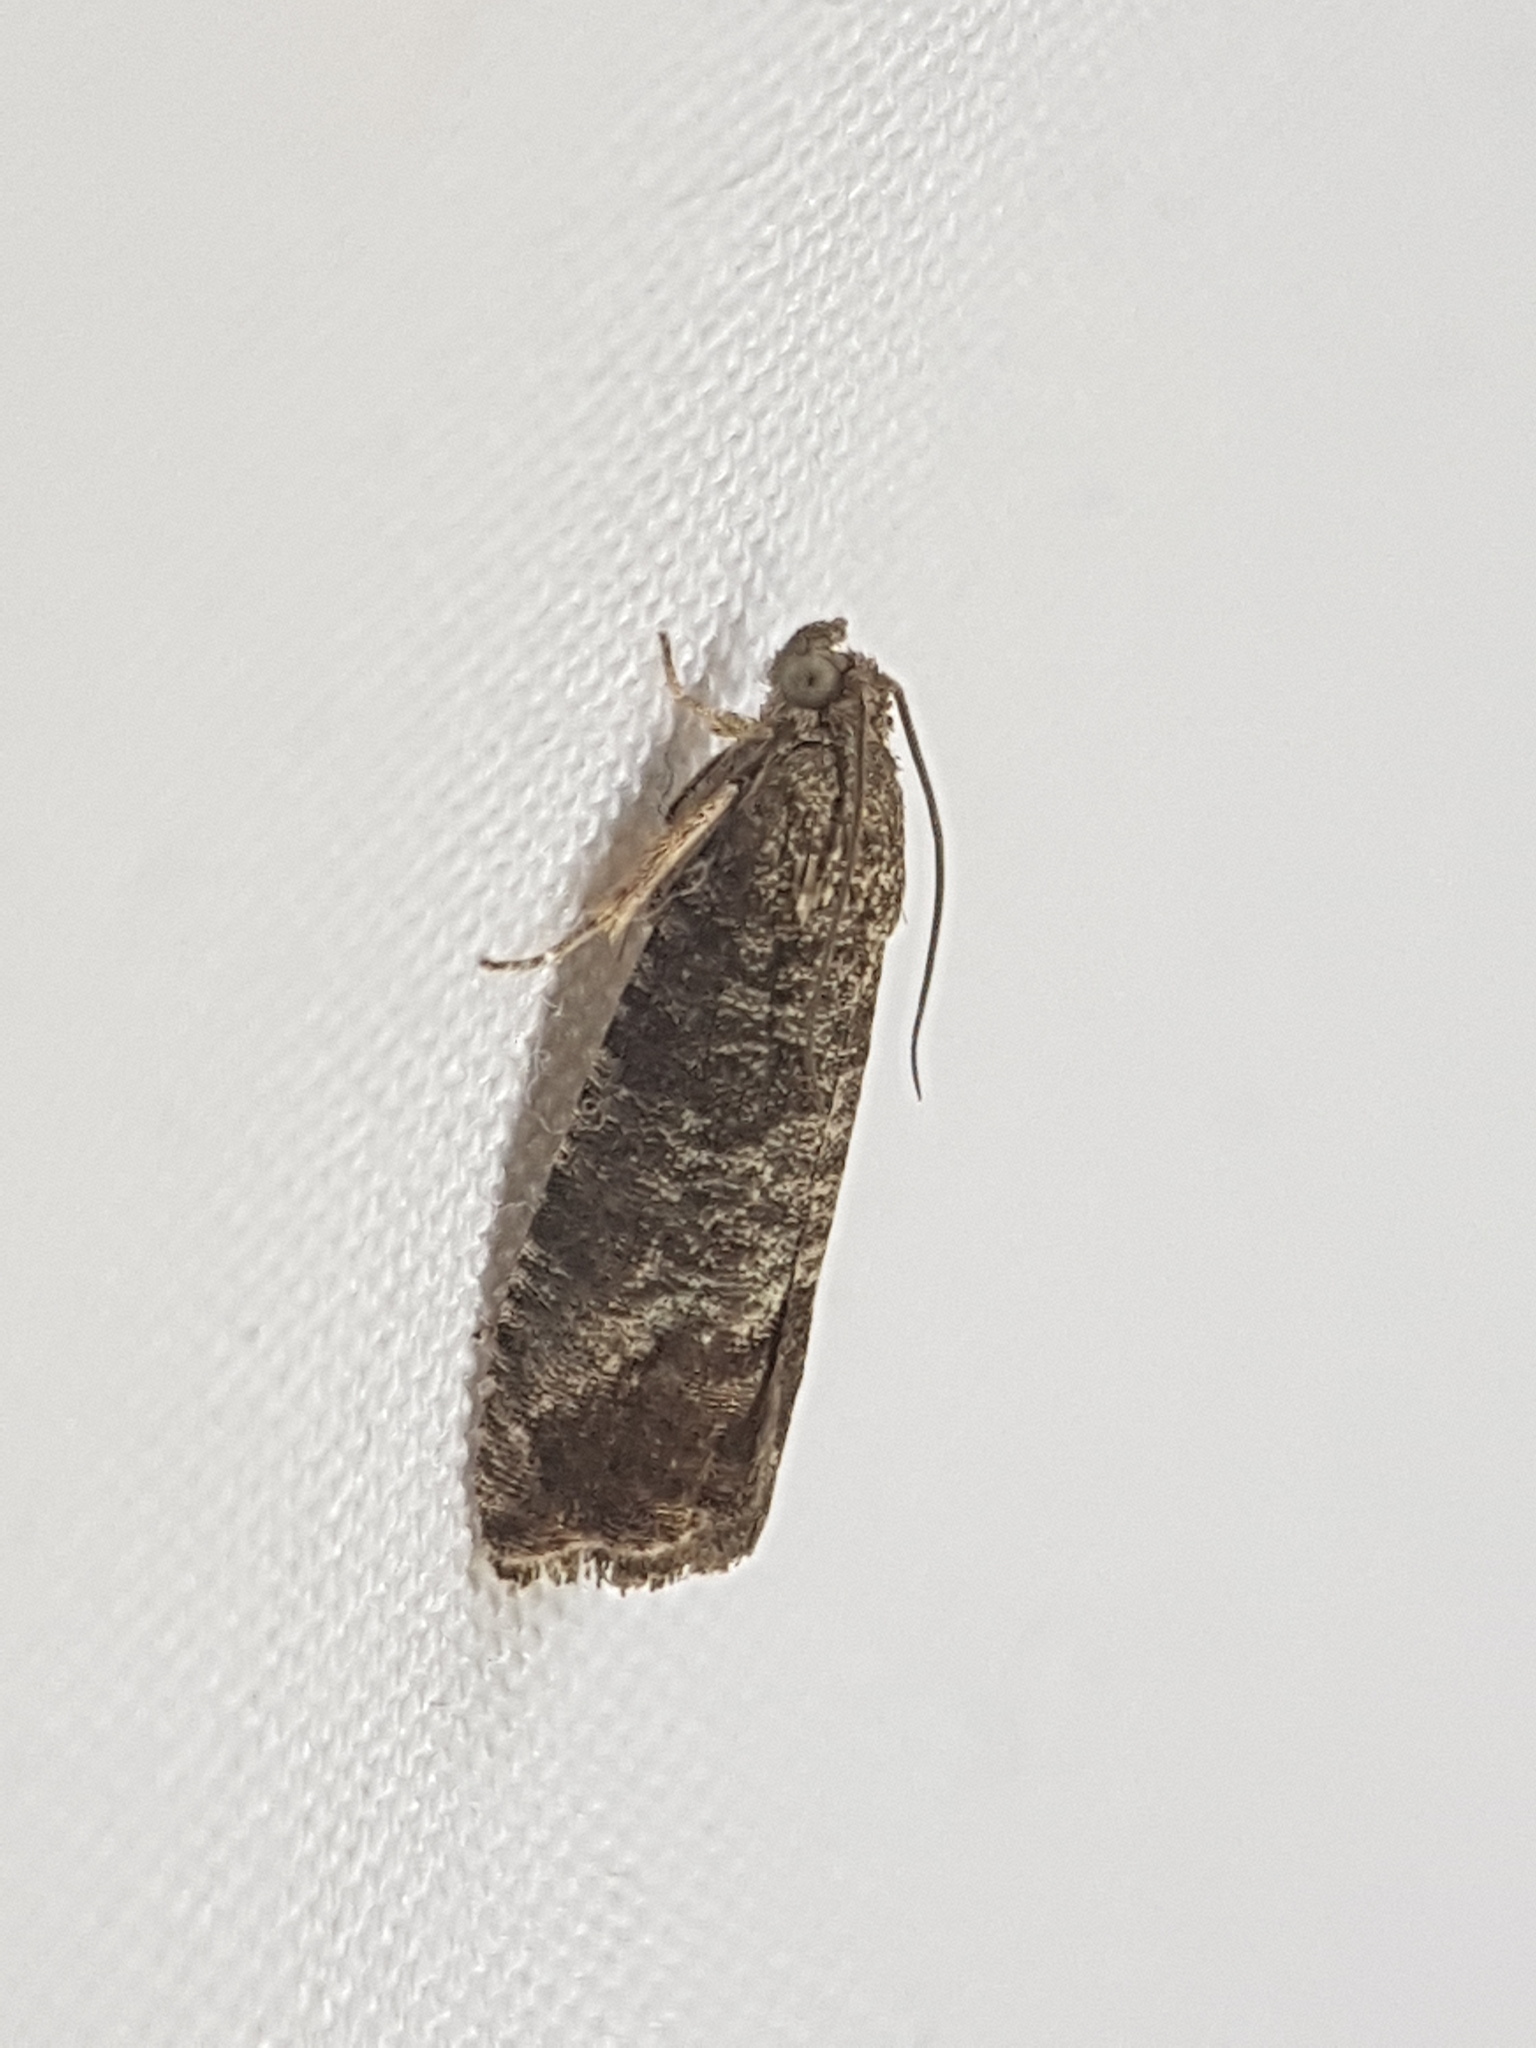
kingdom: Animalia
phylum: Arthropoda
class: Insecta
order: Lepidoptera
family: Tortricidae
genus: Cydia
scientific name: Cydia pomonella
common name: Codling moth
